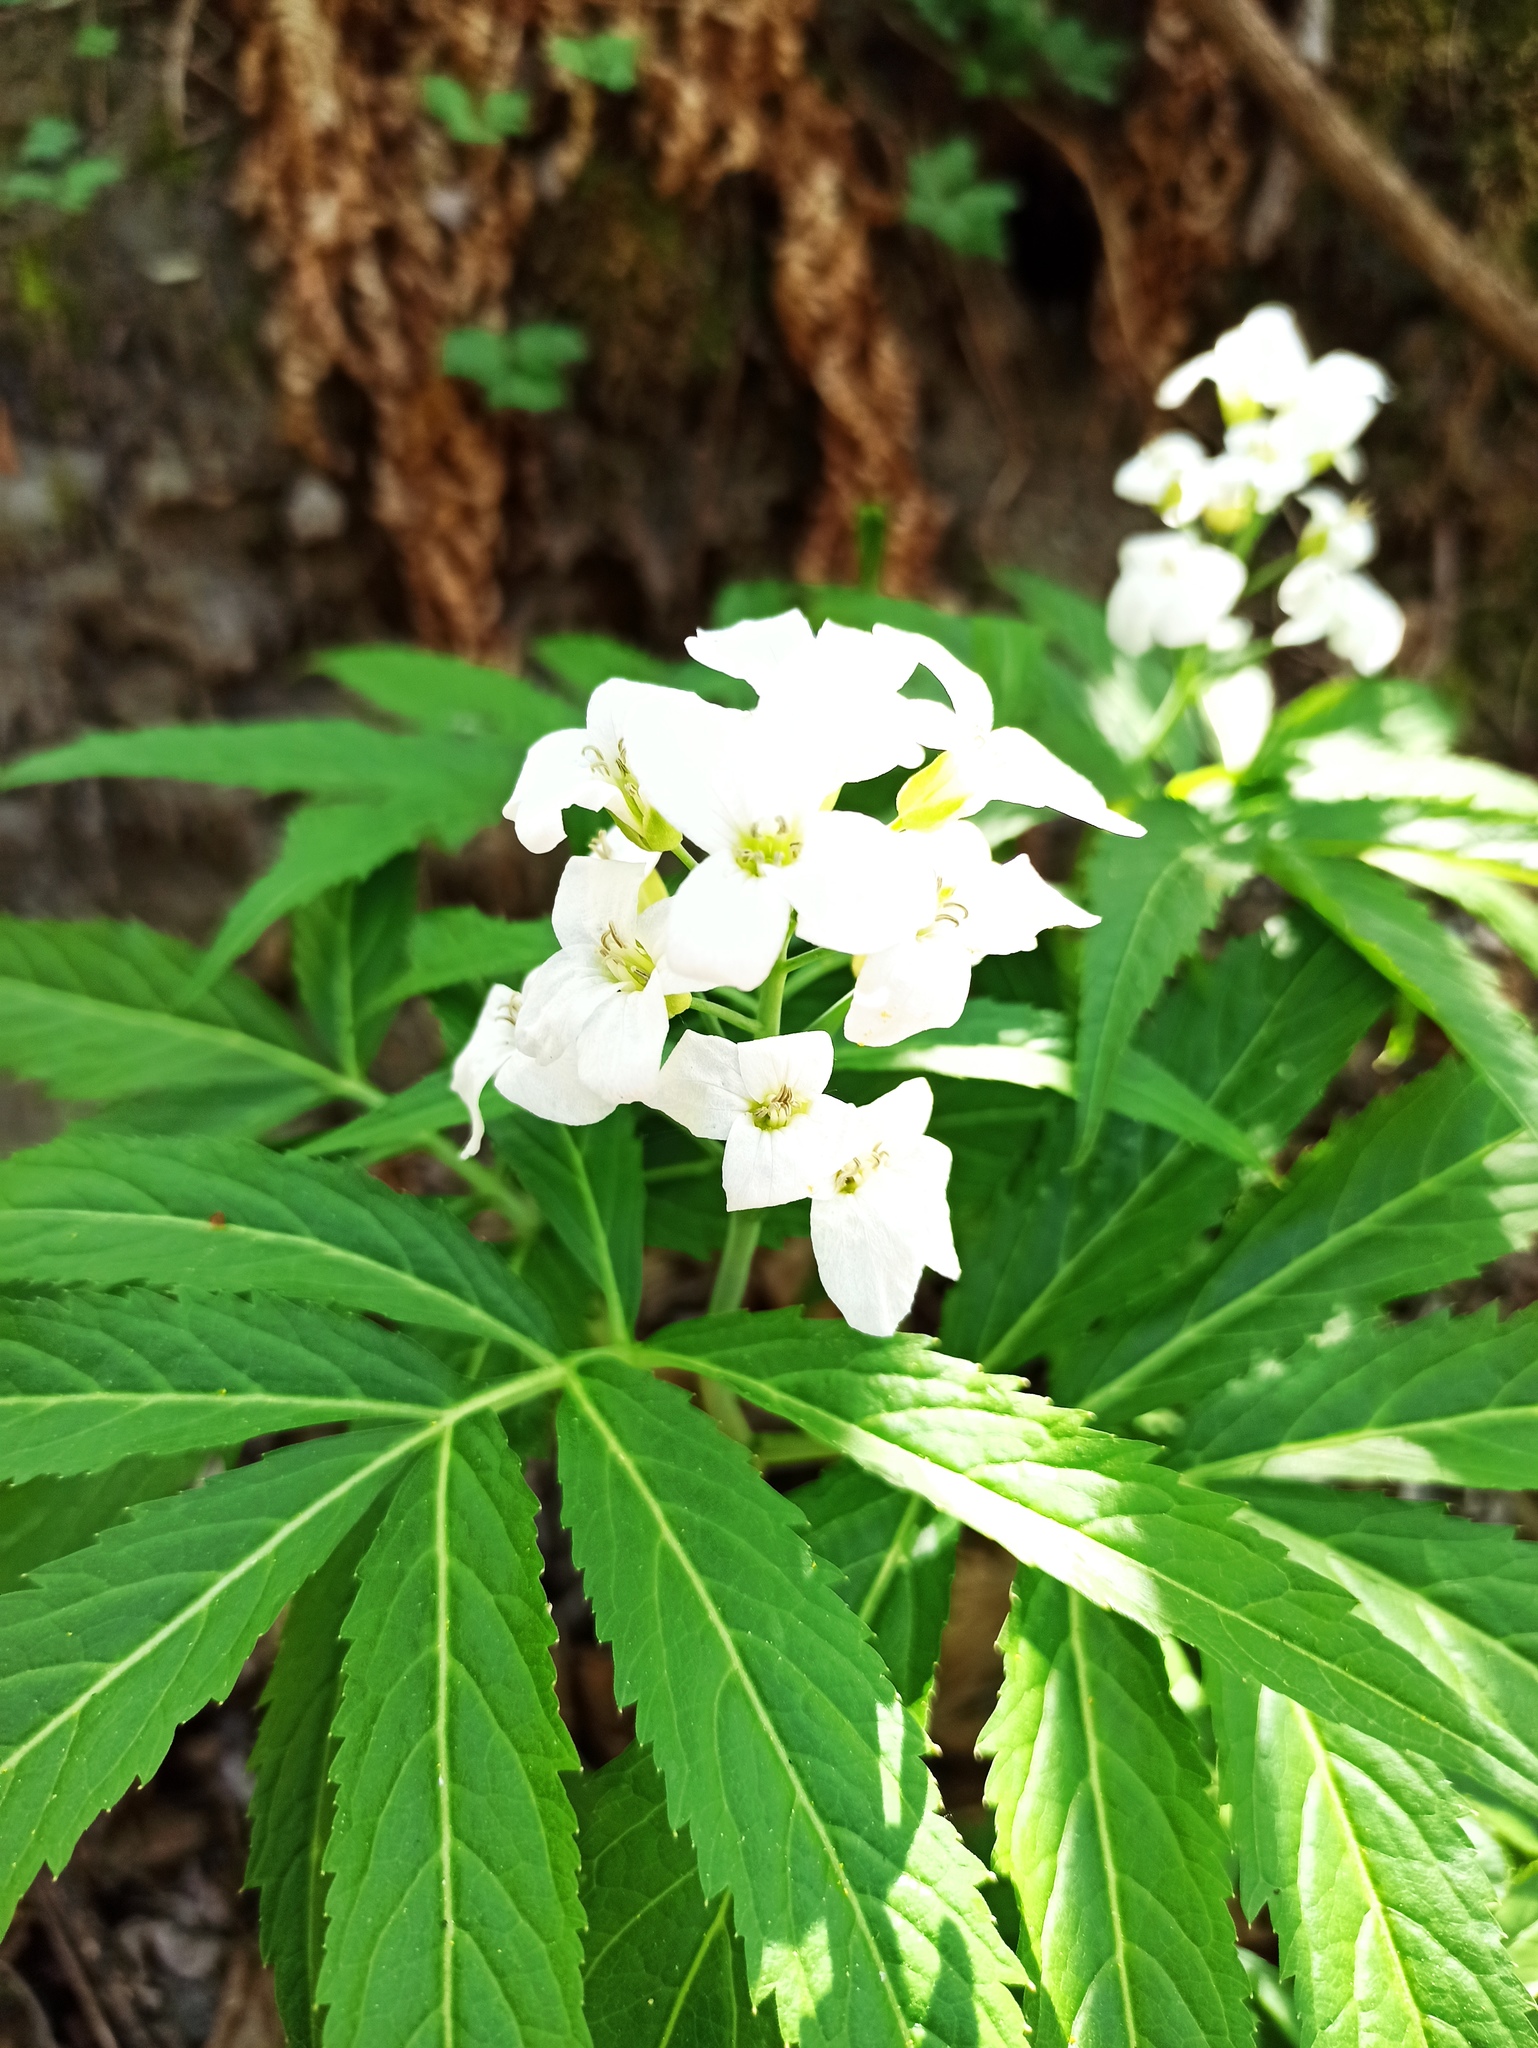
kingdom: Plantae
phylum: Tracheophyta
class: Magnoliopsida
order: Brassicales
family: Brassicaceae
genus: Cardamine
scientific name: Cardamine heptaphylla
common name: Pinnate coralroot
